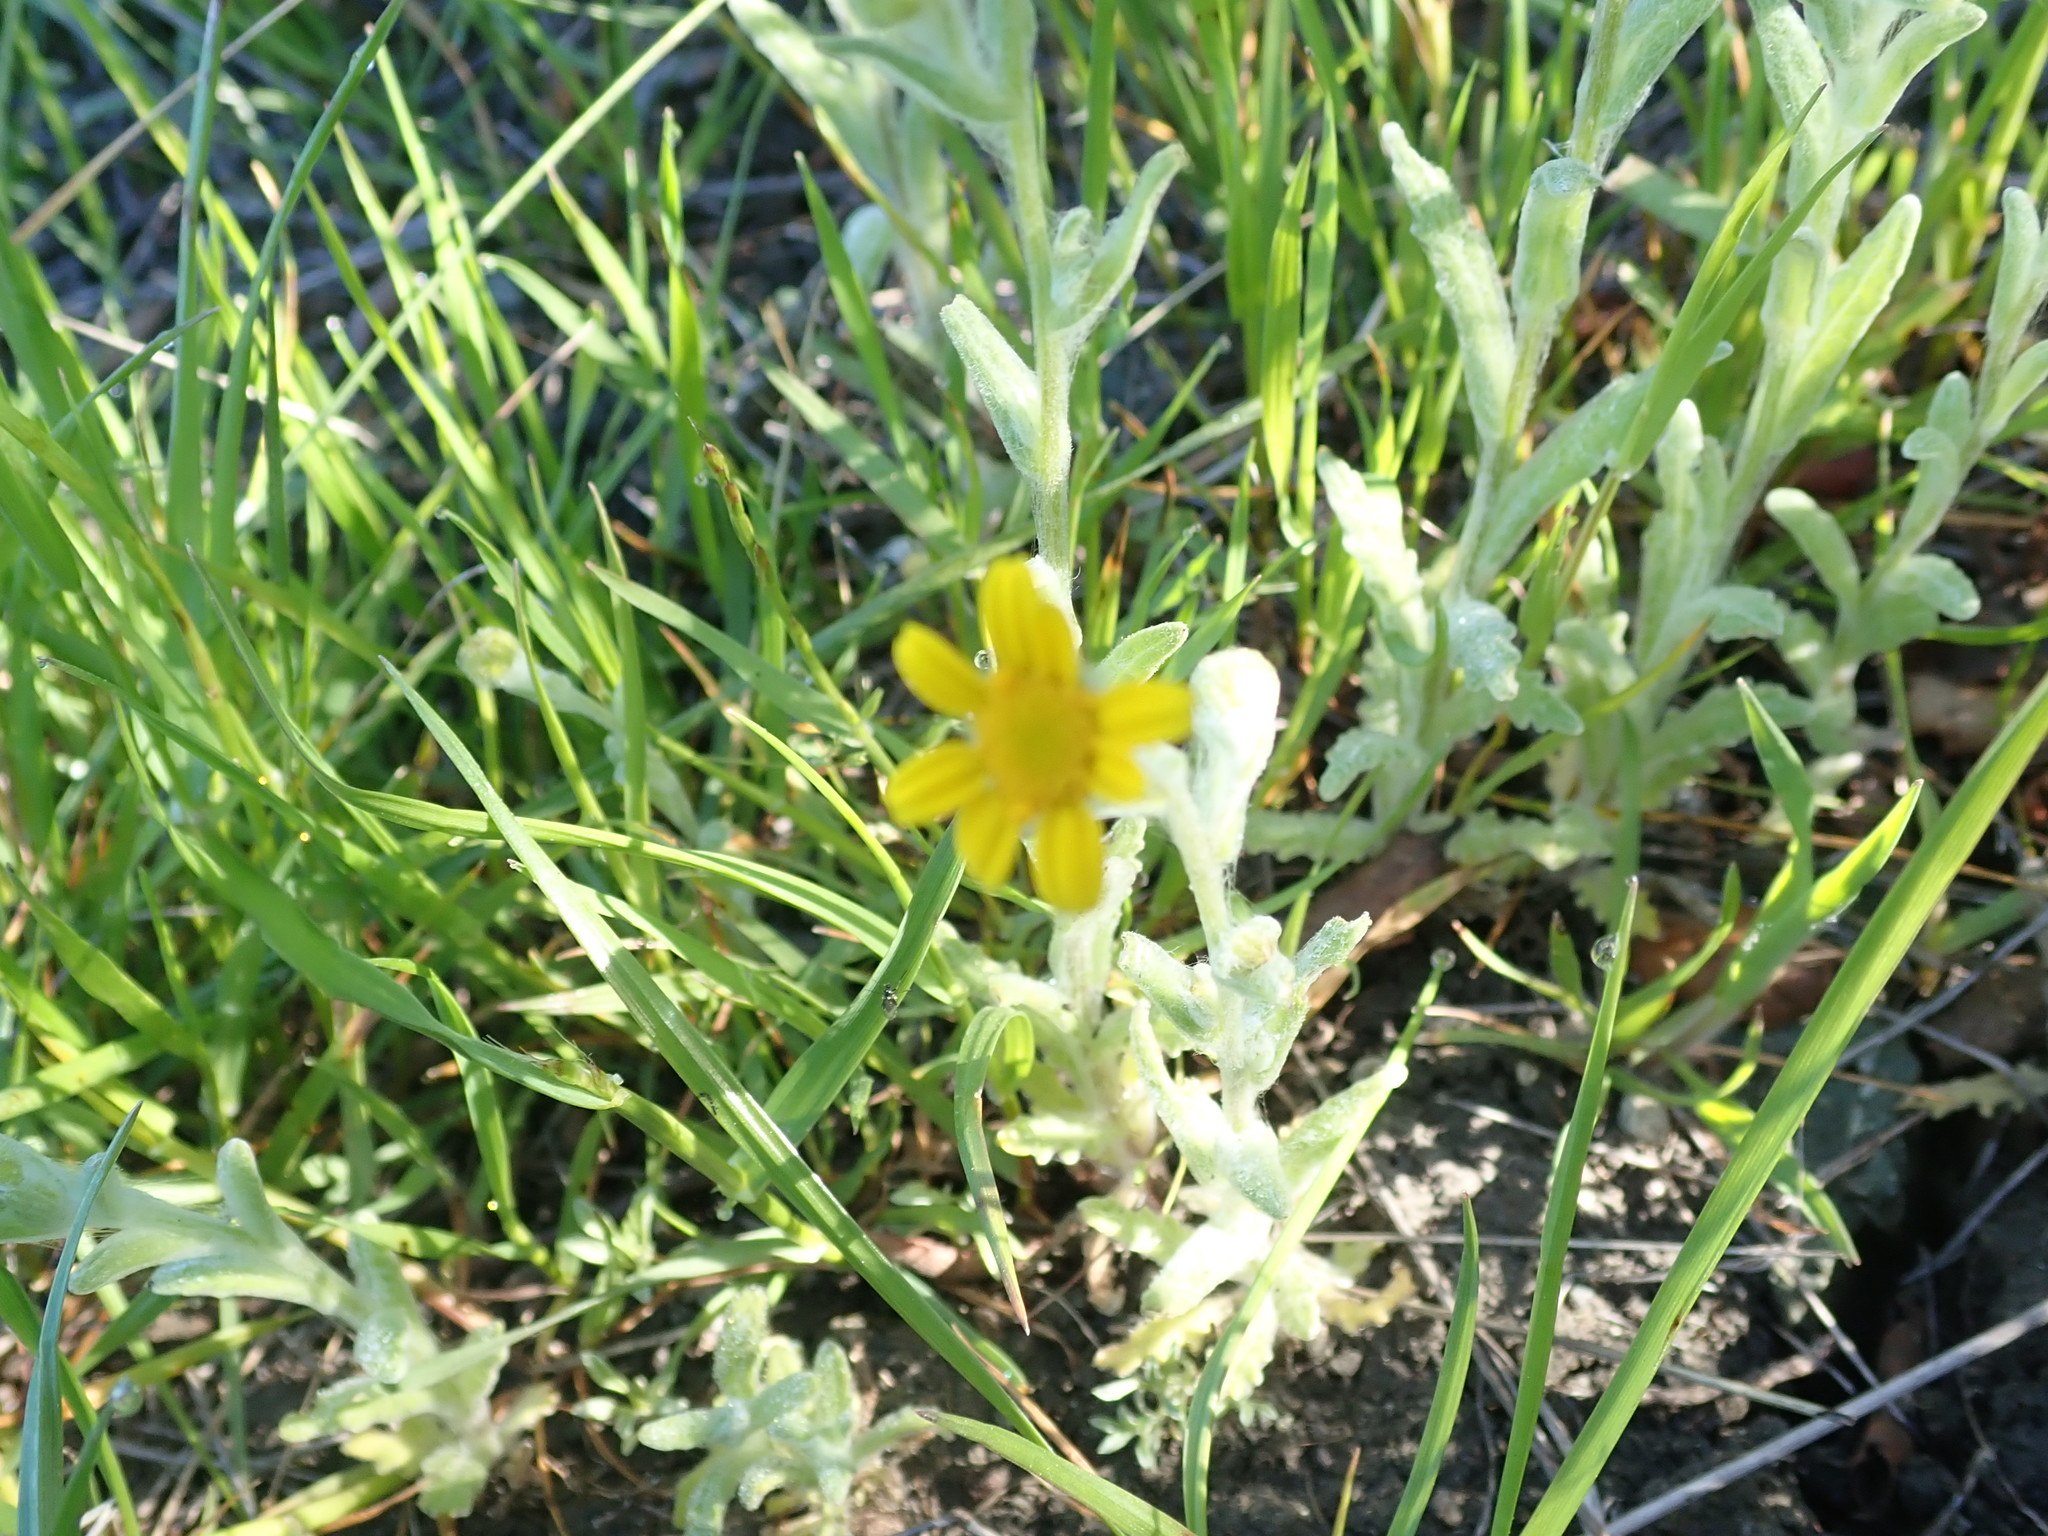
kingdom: Plantae
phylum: Tracheophyta
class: Magnoliopsida
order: Asterales
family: Asteraceae
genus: Monolopia
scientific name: Monolopia gracilens
